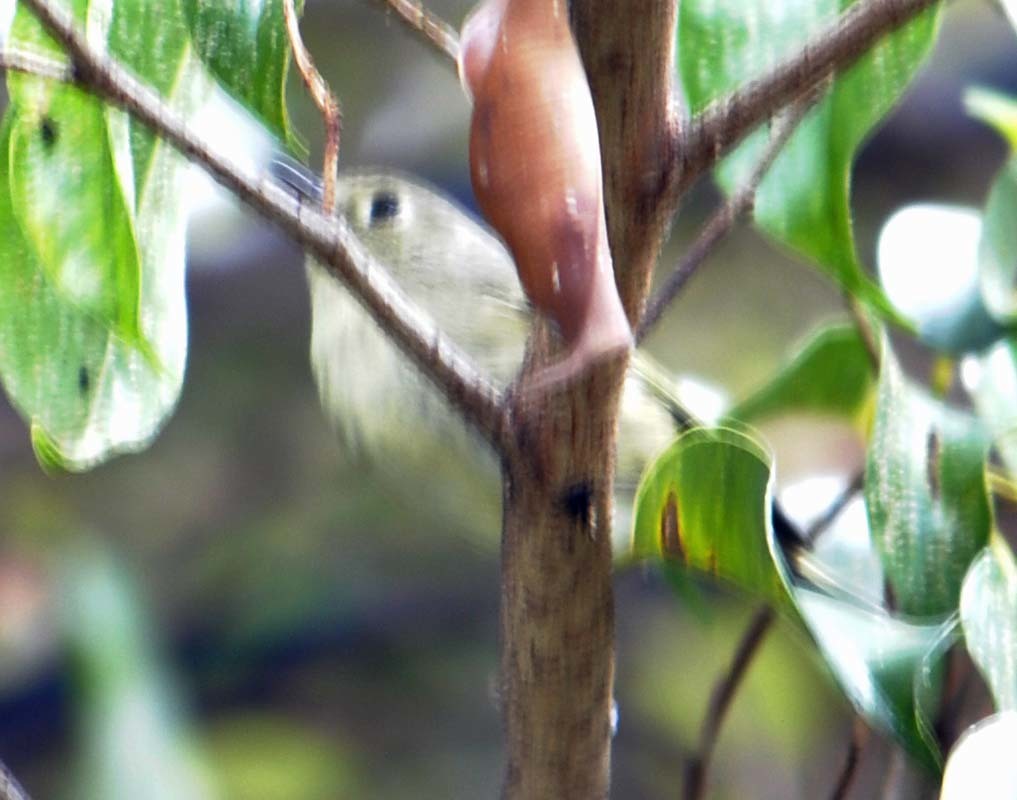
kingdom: Animalia
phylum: Chordata
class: Aves
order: Passeriformes
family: Regulidae
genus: Regulus
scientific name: Regulus calendula
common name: Ruby-crowned kinglet
